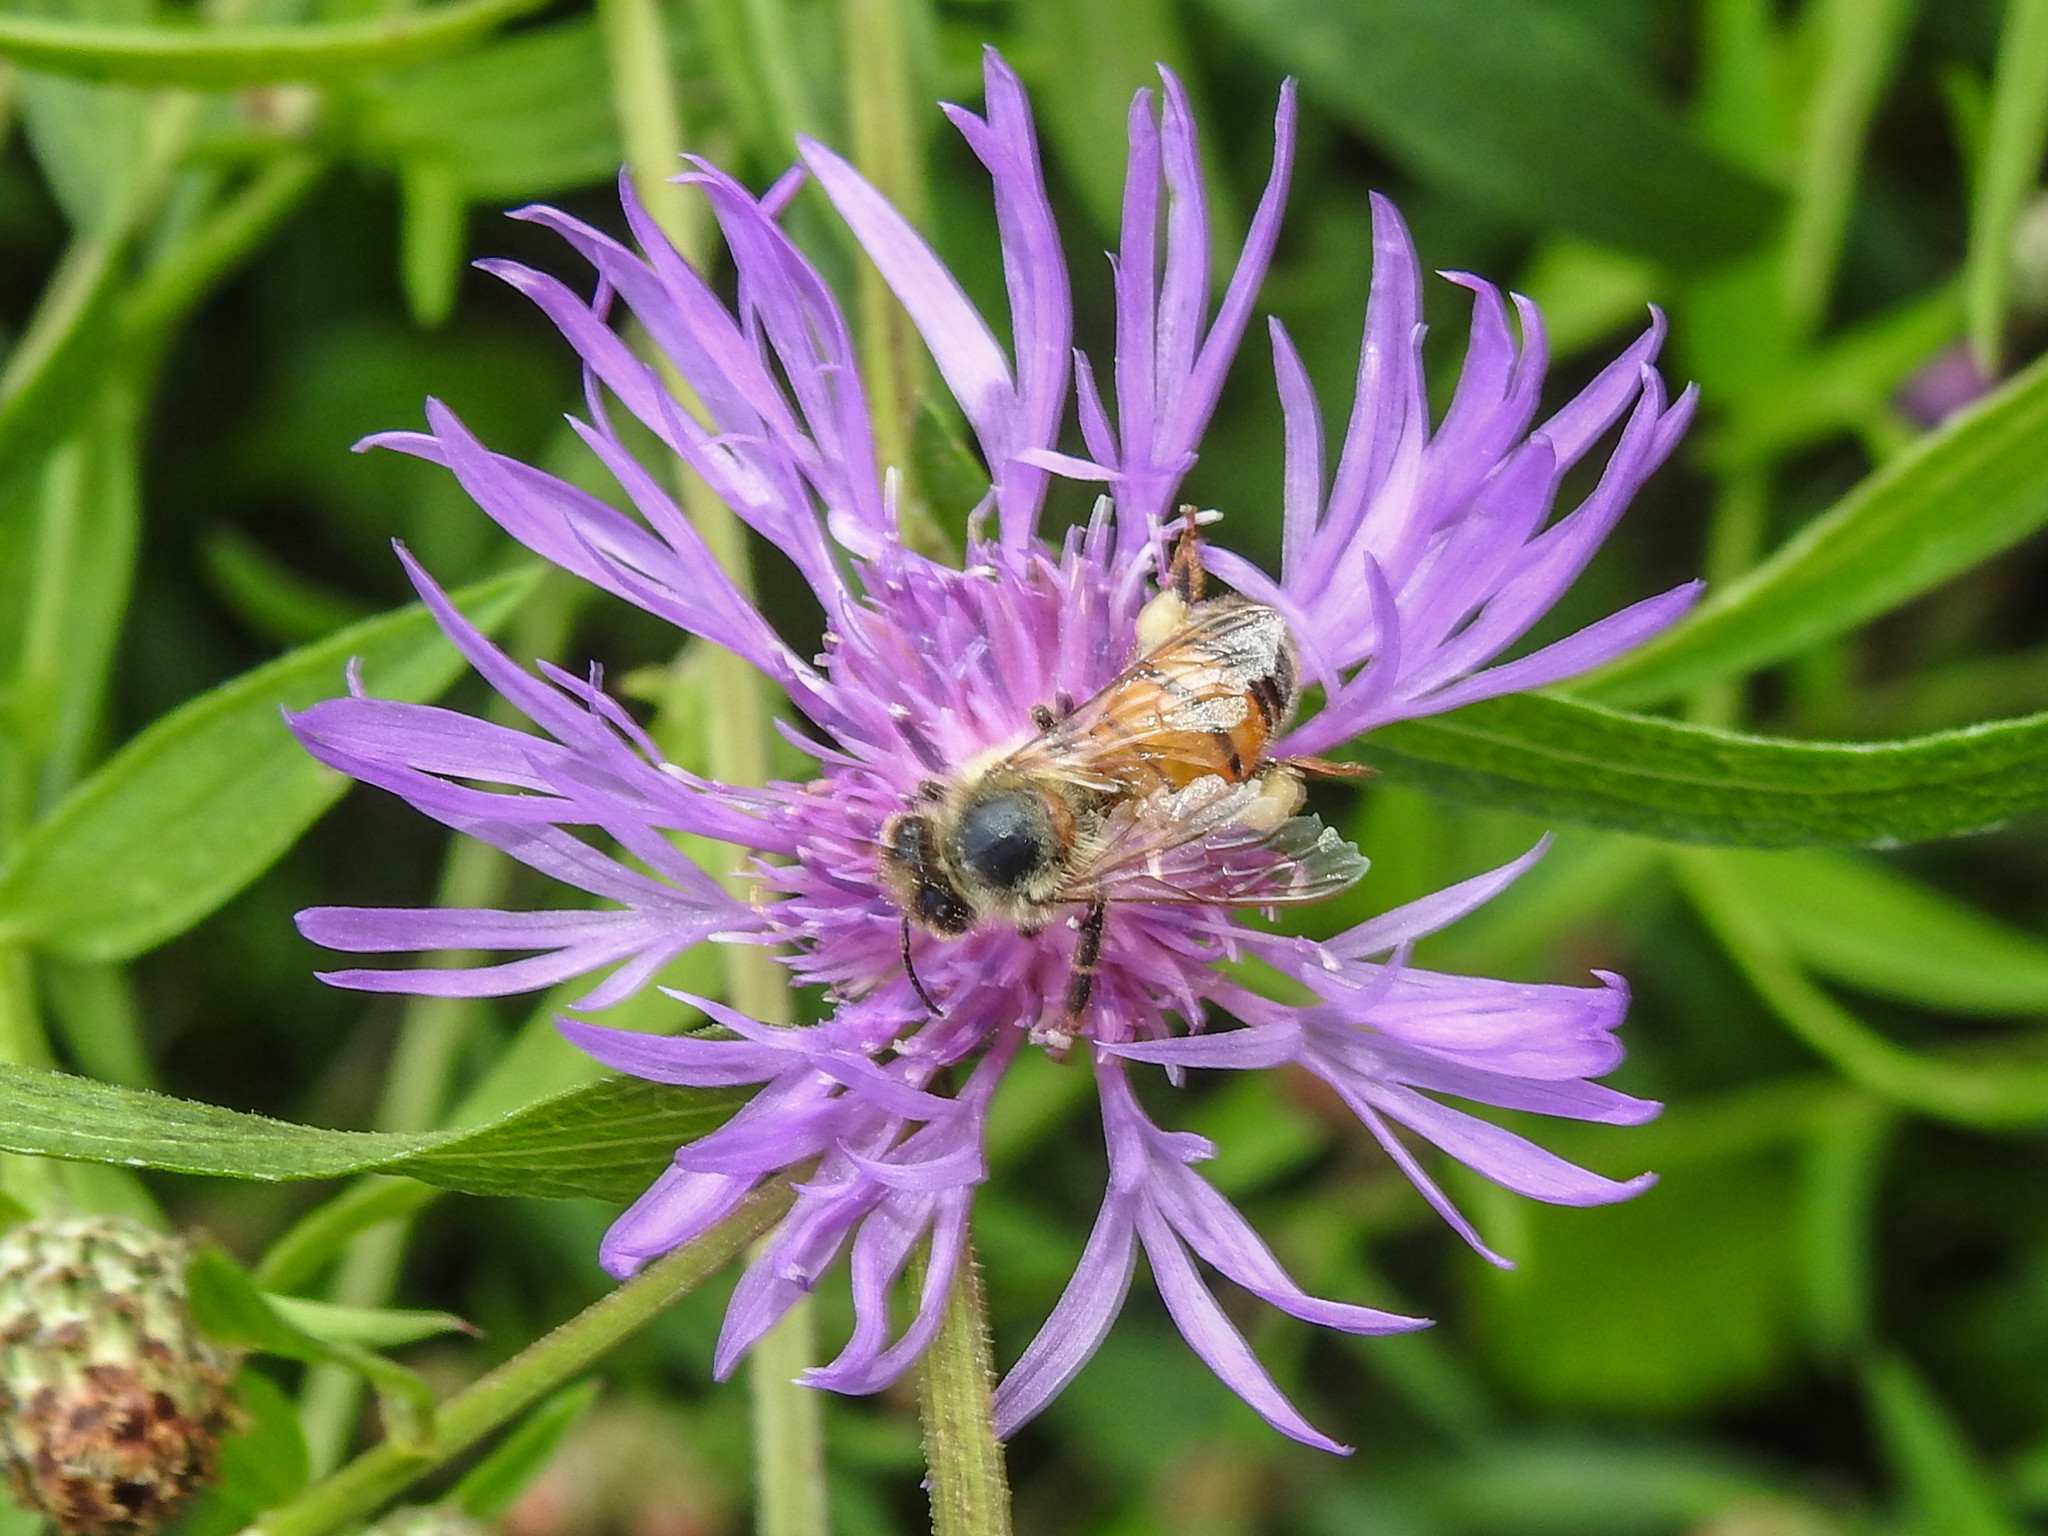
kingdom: Animalia
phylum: Arthropoda
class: Insecta
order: Hymenoptera
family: Apidae
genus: Apis
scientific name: Apis mellifera
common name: Honey bee
